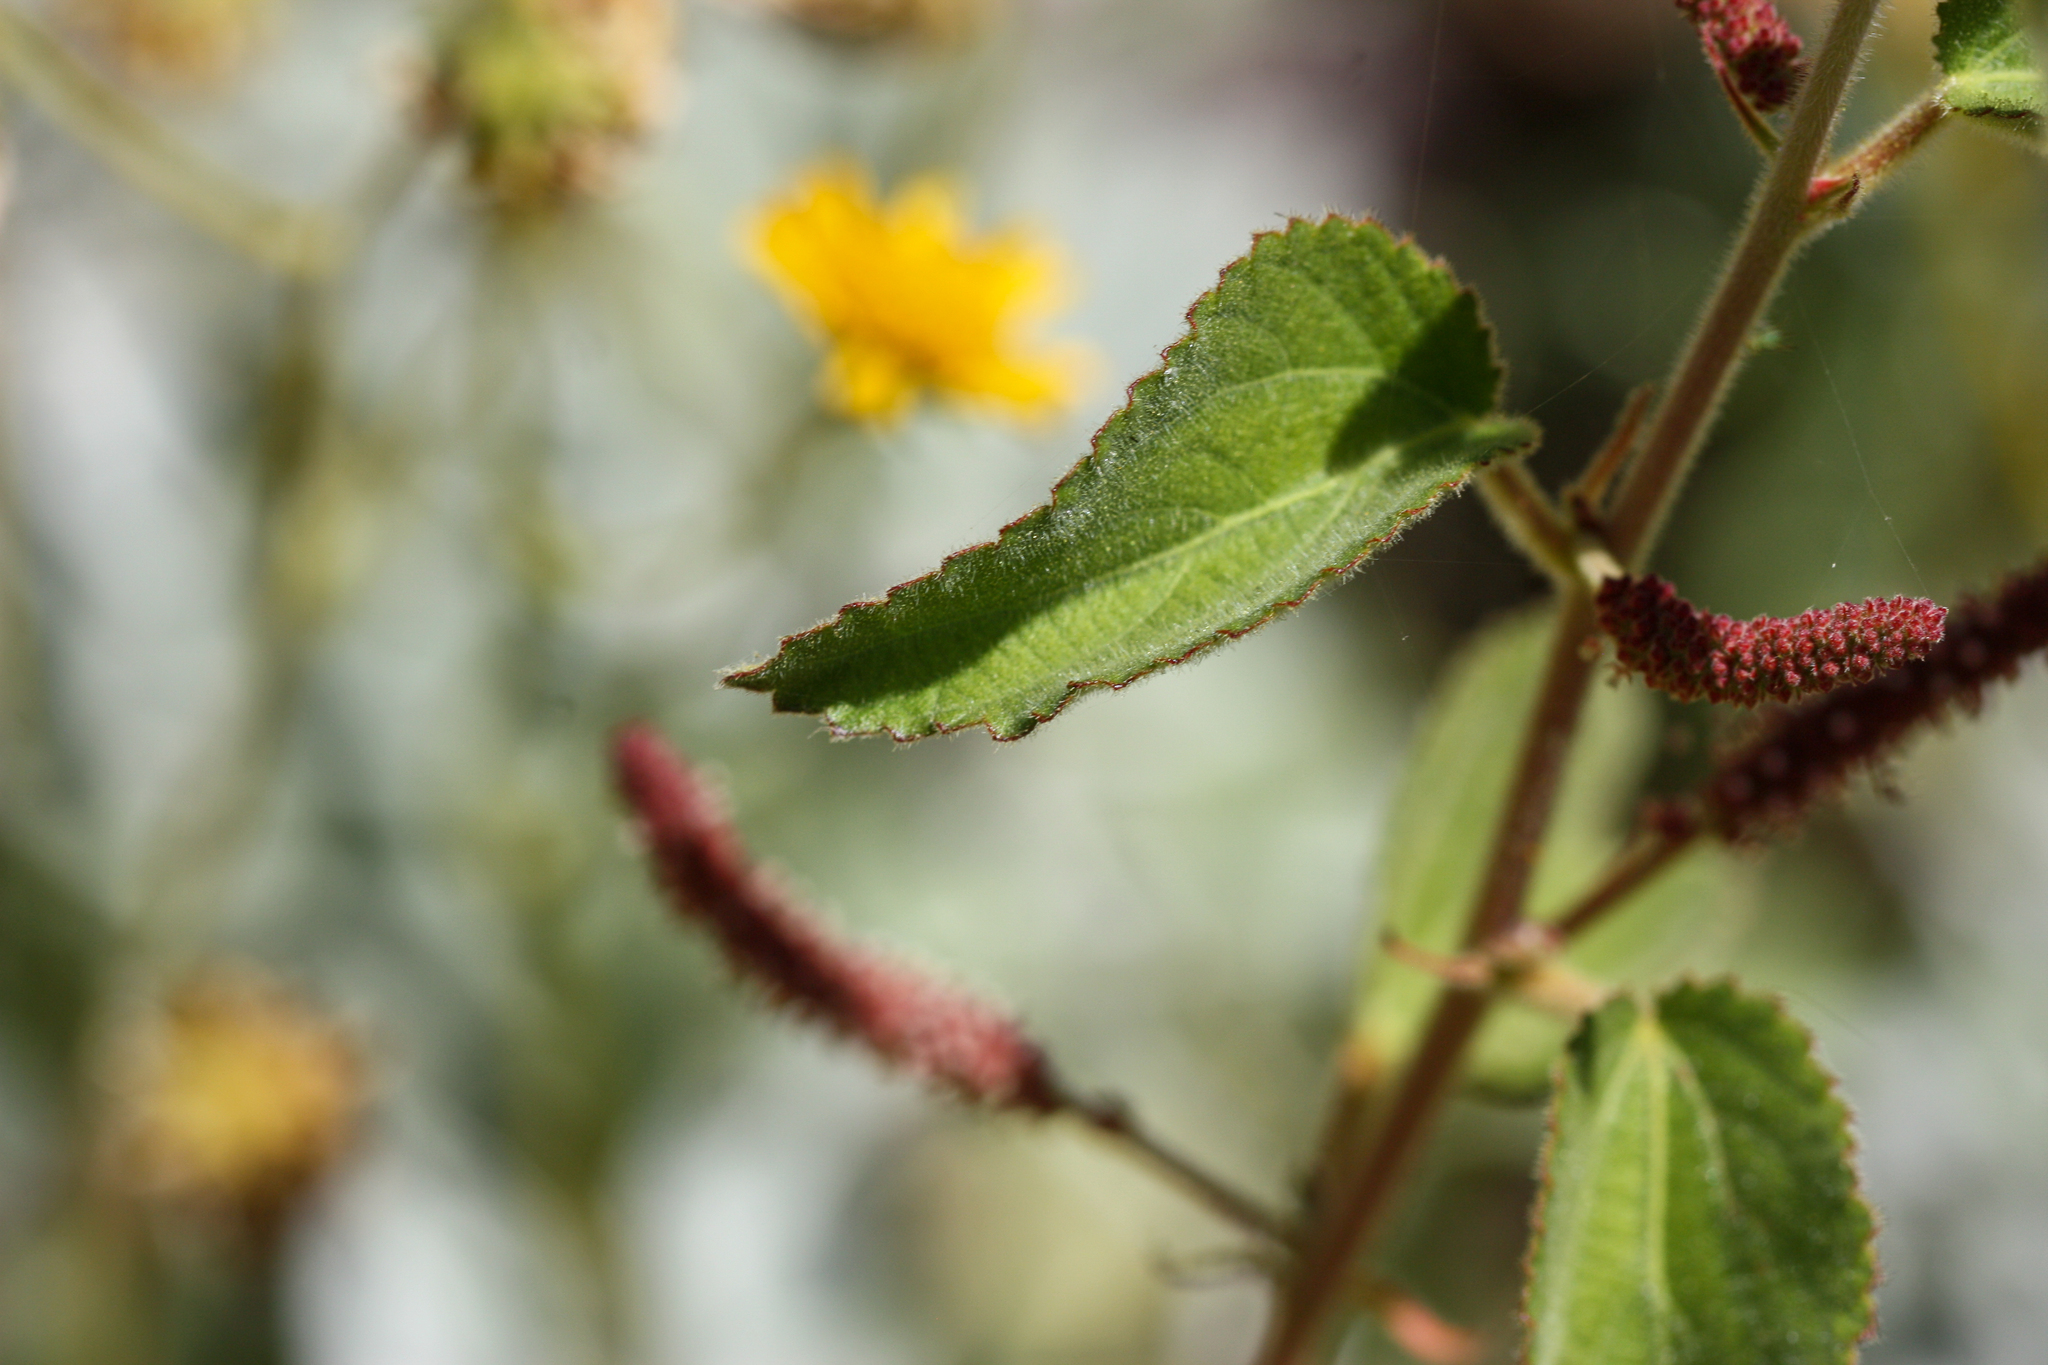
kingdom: Plantae
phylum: Tracheophyta
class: Magnoliopsida
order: Malpighiales
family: Euphorbiaceae
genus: Acalypha
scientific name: Acalypha californica
